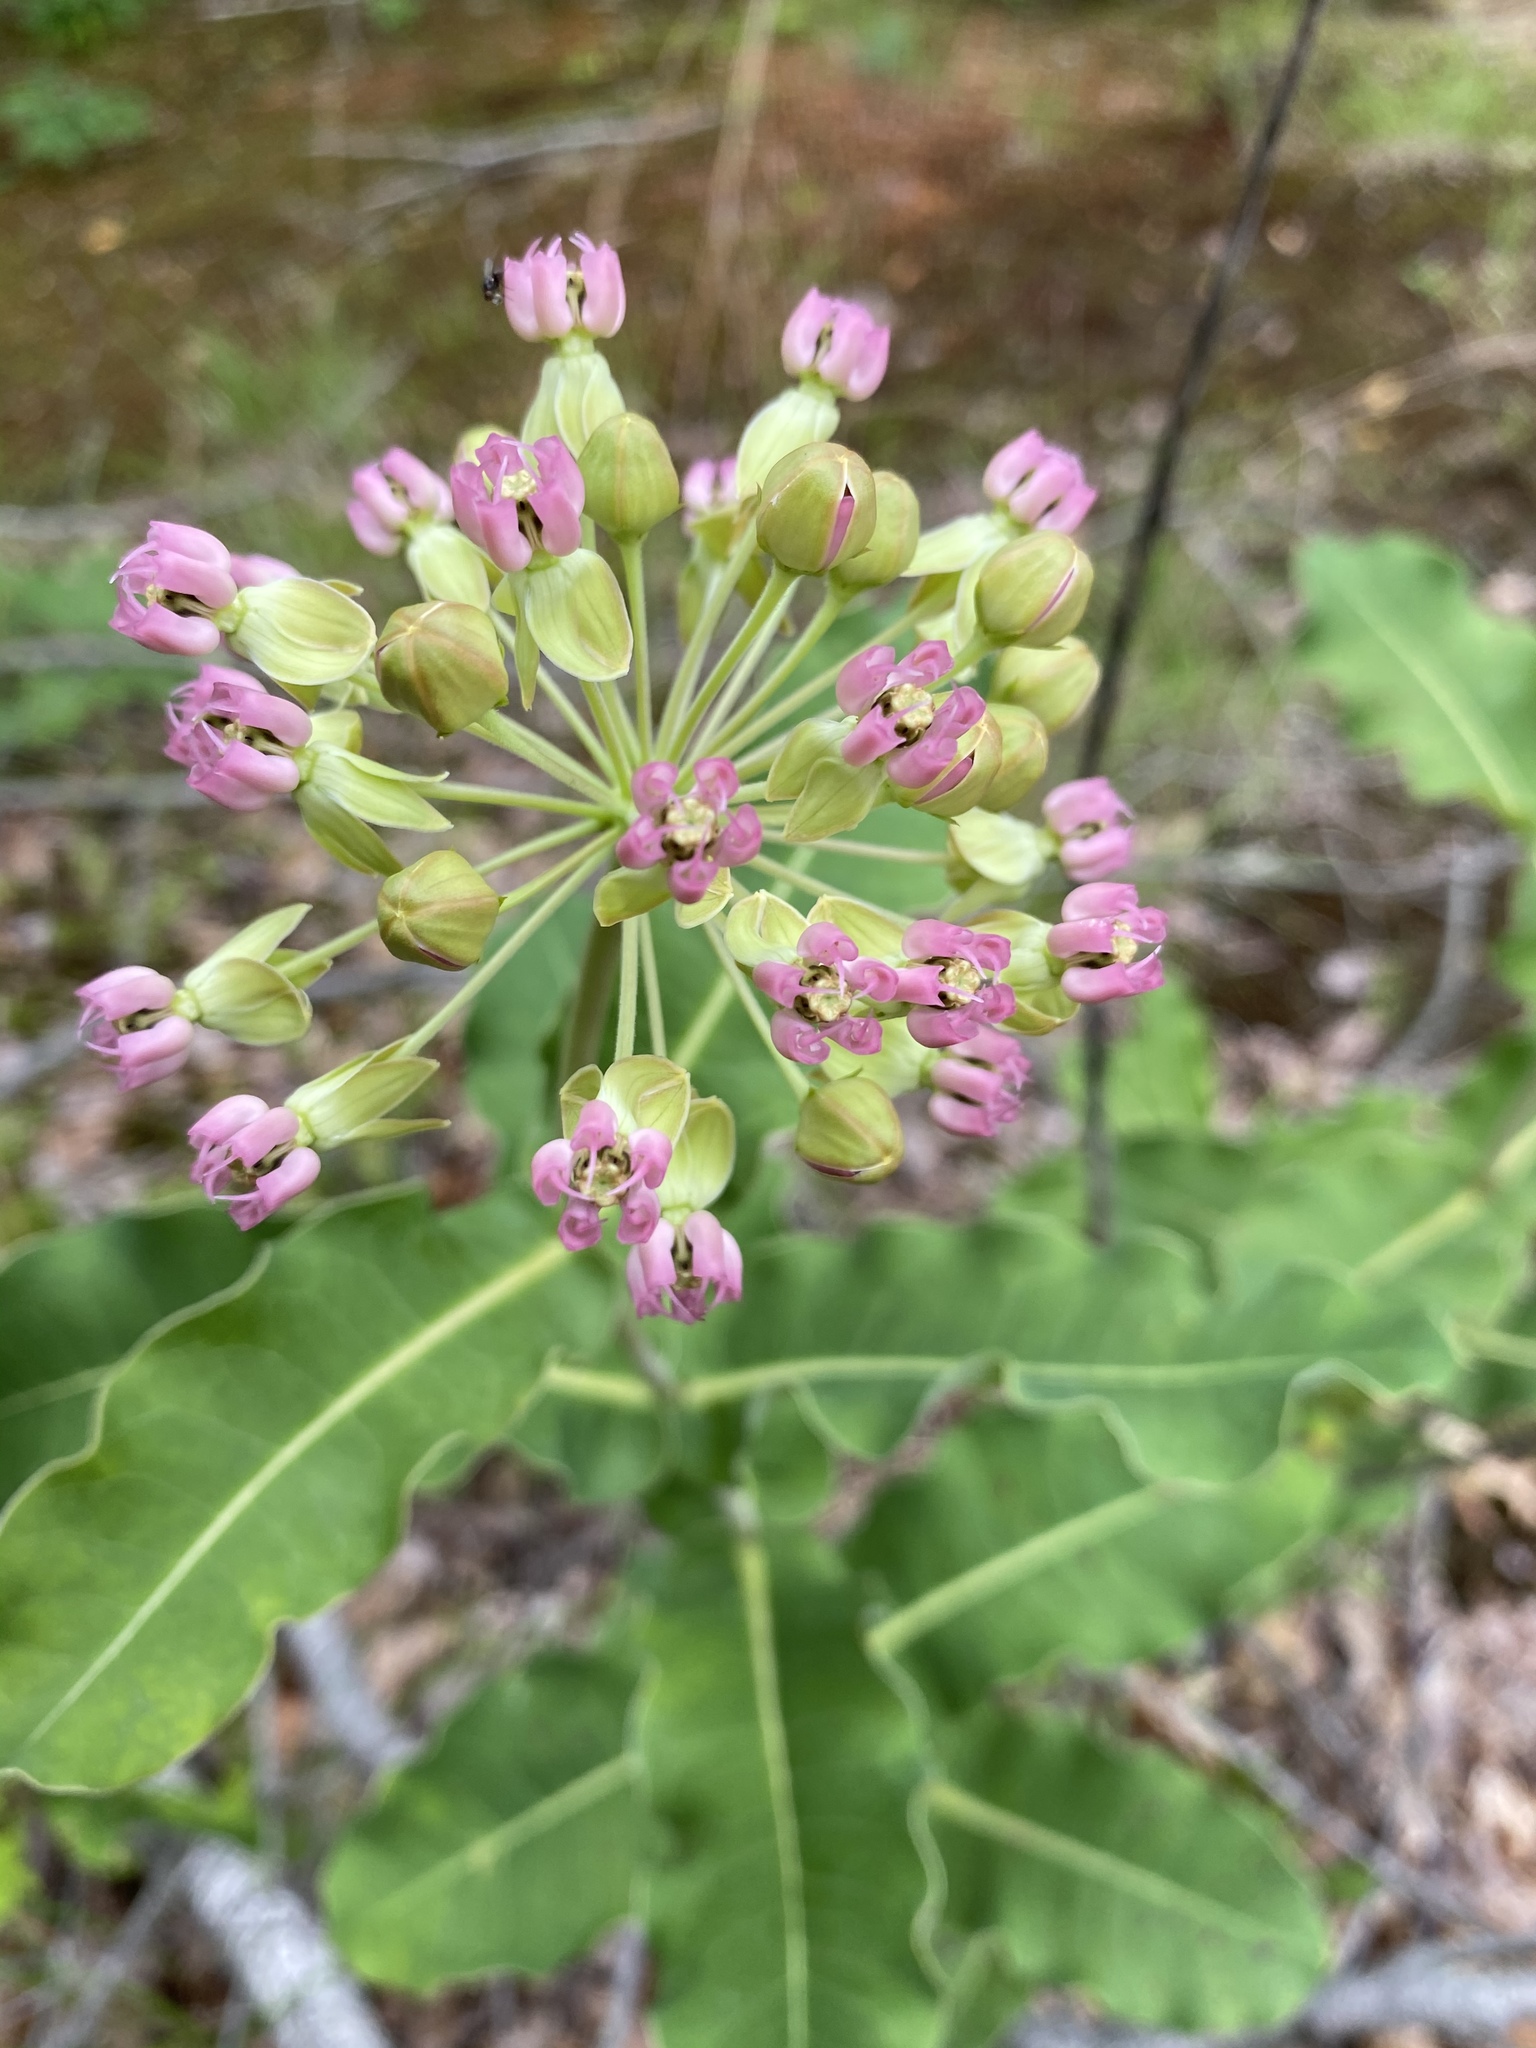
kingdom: Plantae
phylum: Tracheophyta
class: Magnoliopsida
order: Gentianales
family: Apocynaceae
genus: Asclepias
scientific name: Asclepias amplexicaulis
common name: Blunt-leaf milkweed
